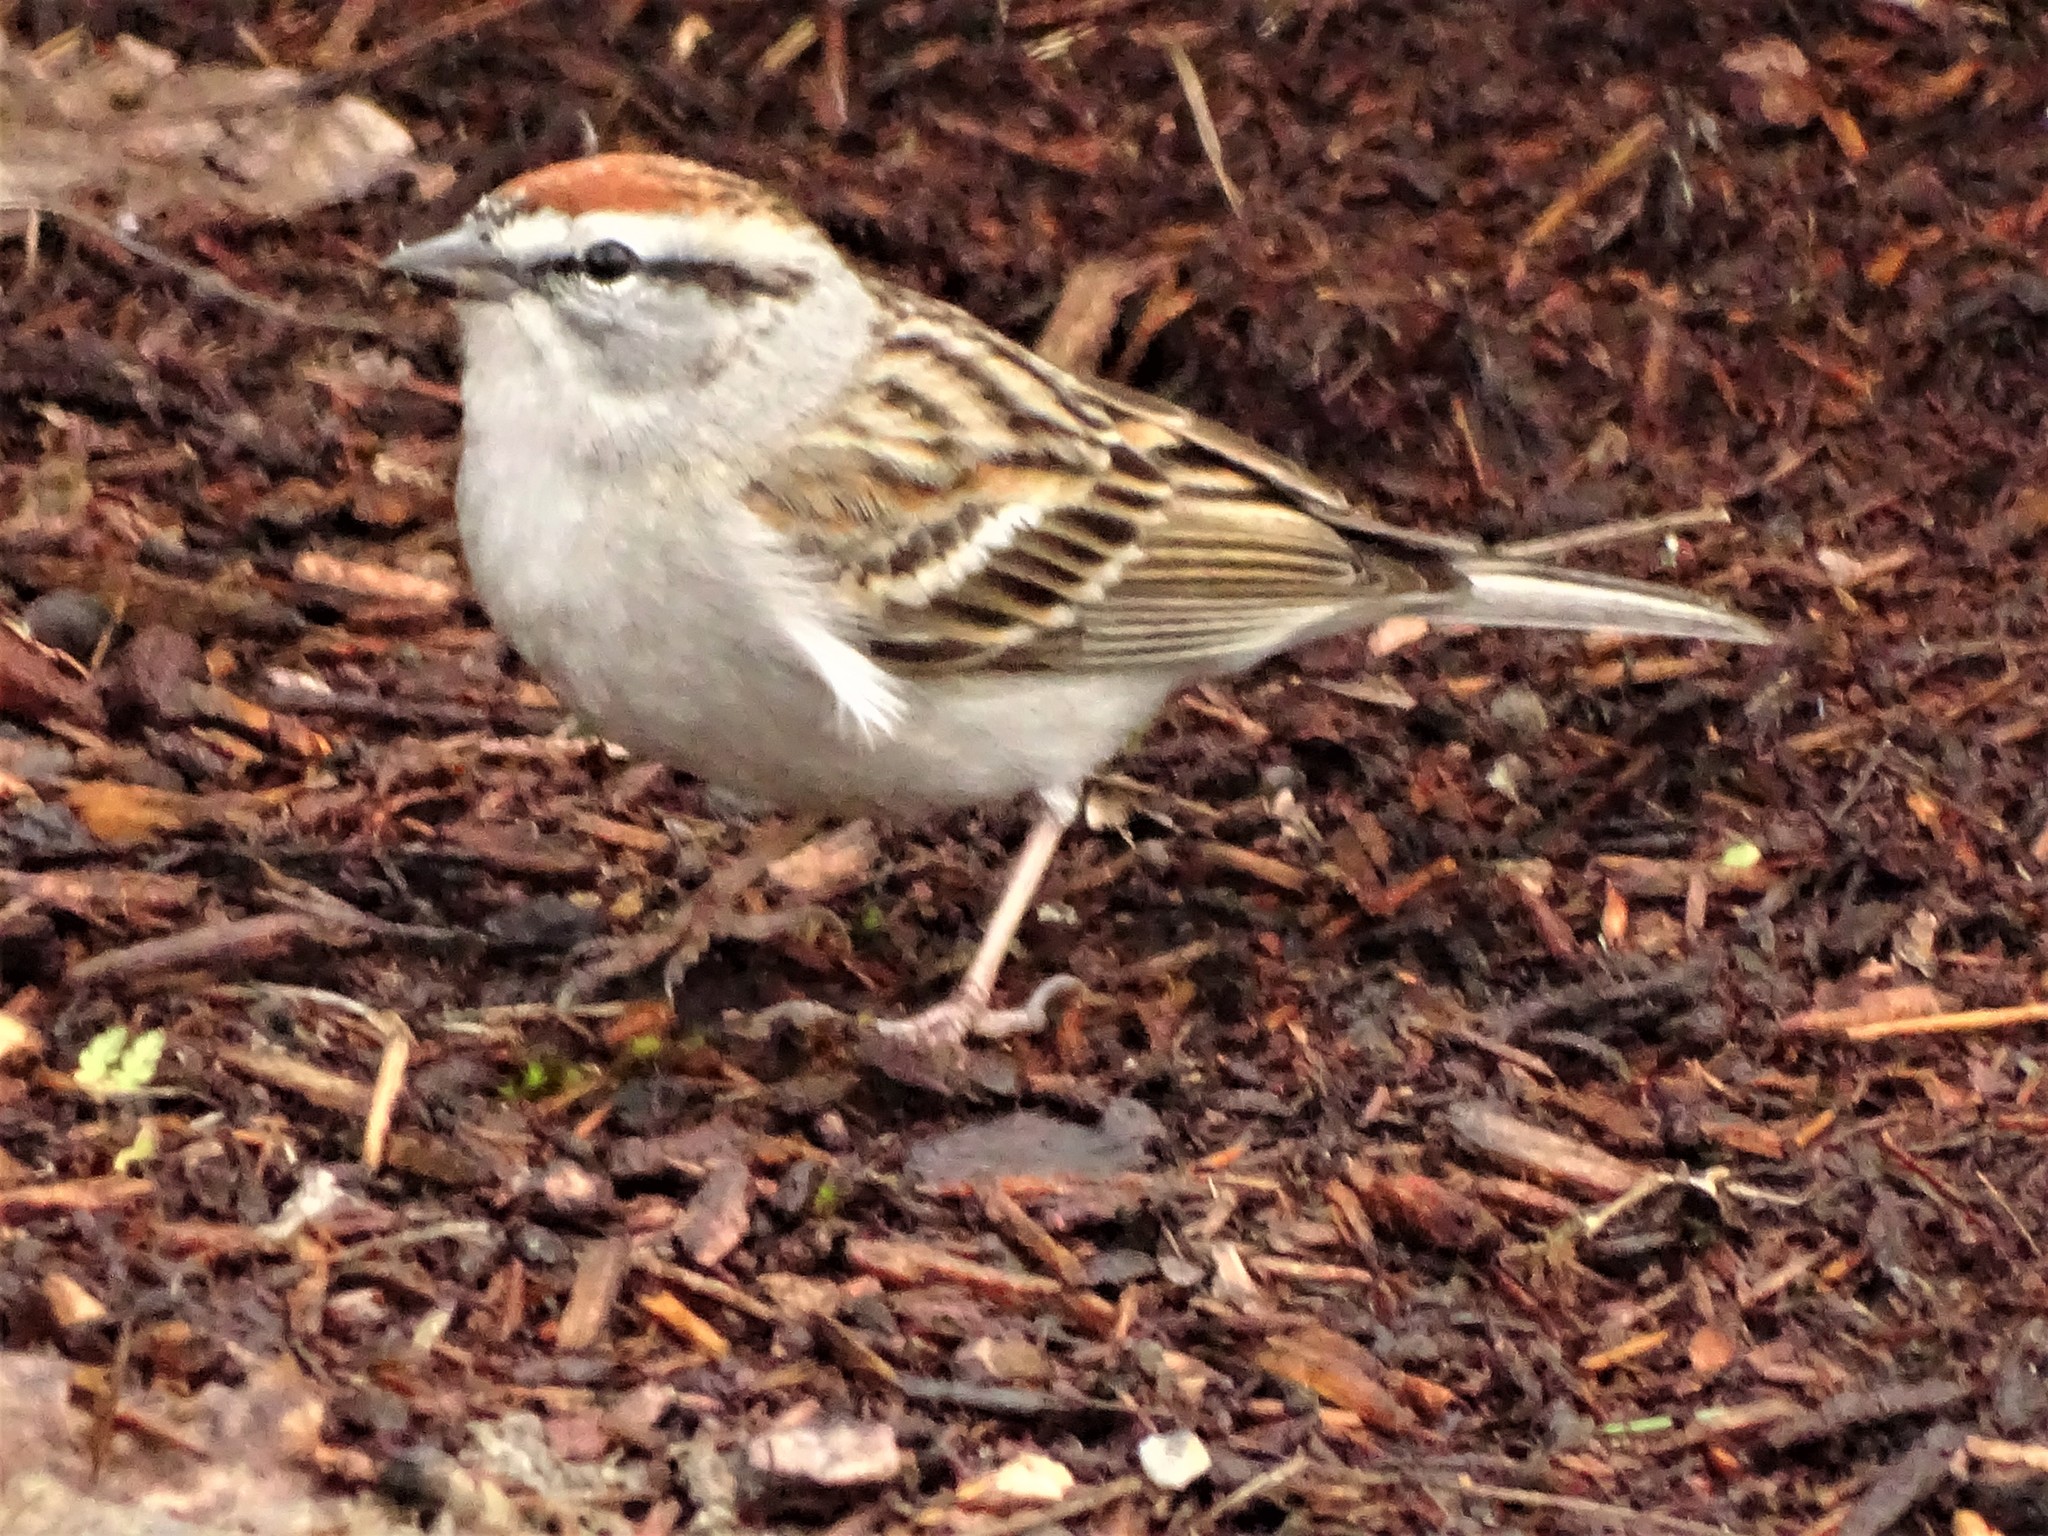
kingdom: Animalia
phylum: Chordata
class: Aves
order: Passeriformes
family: Passerellidae
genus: Spizella
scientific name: Spizella passerina
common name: Chipping sparrow
